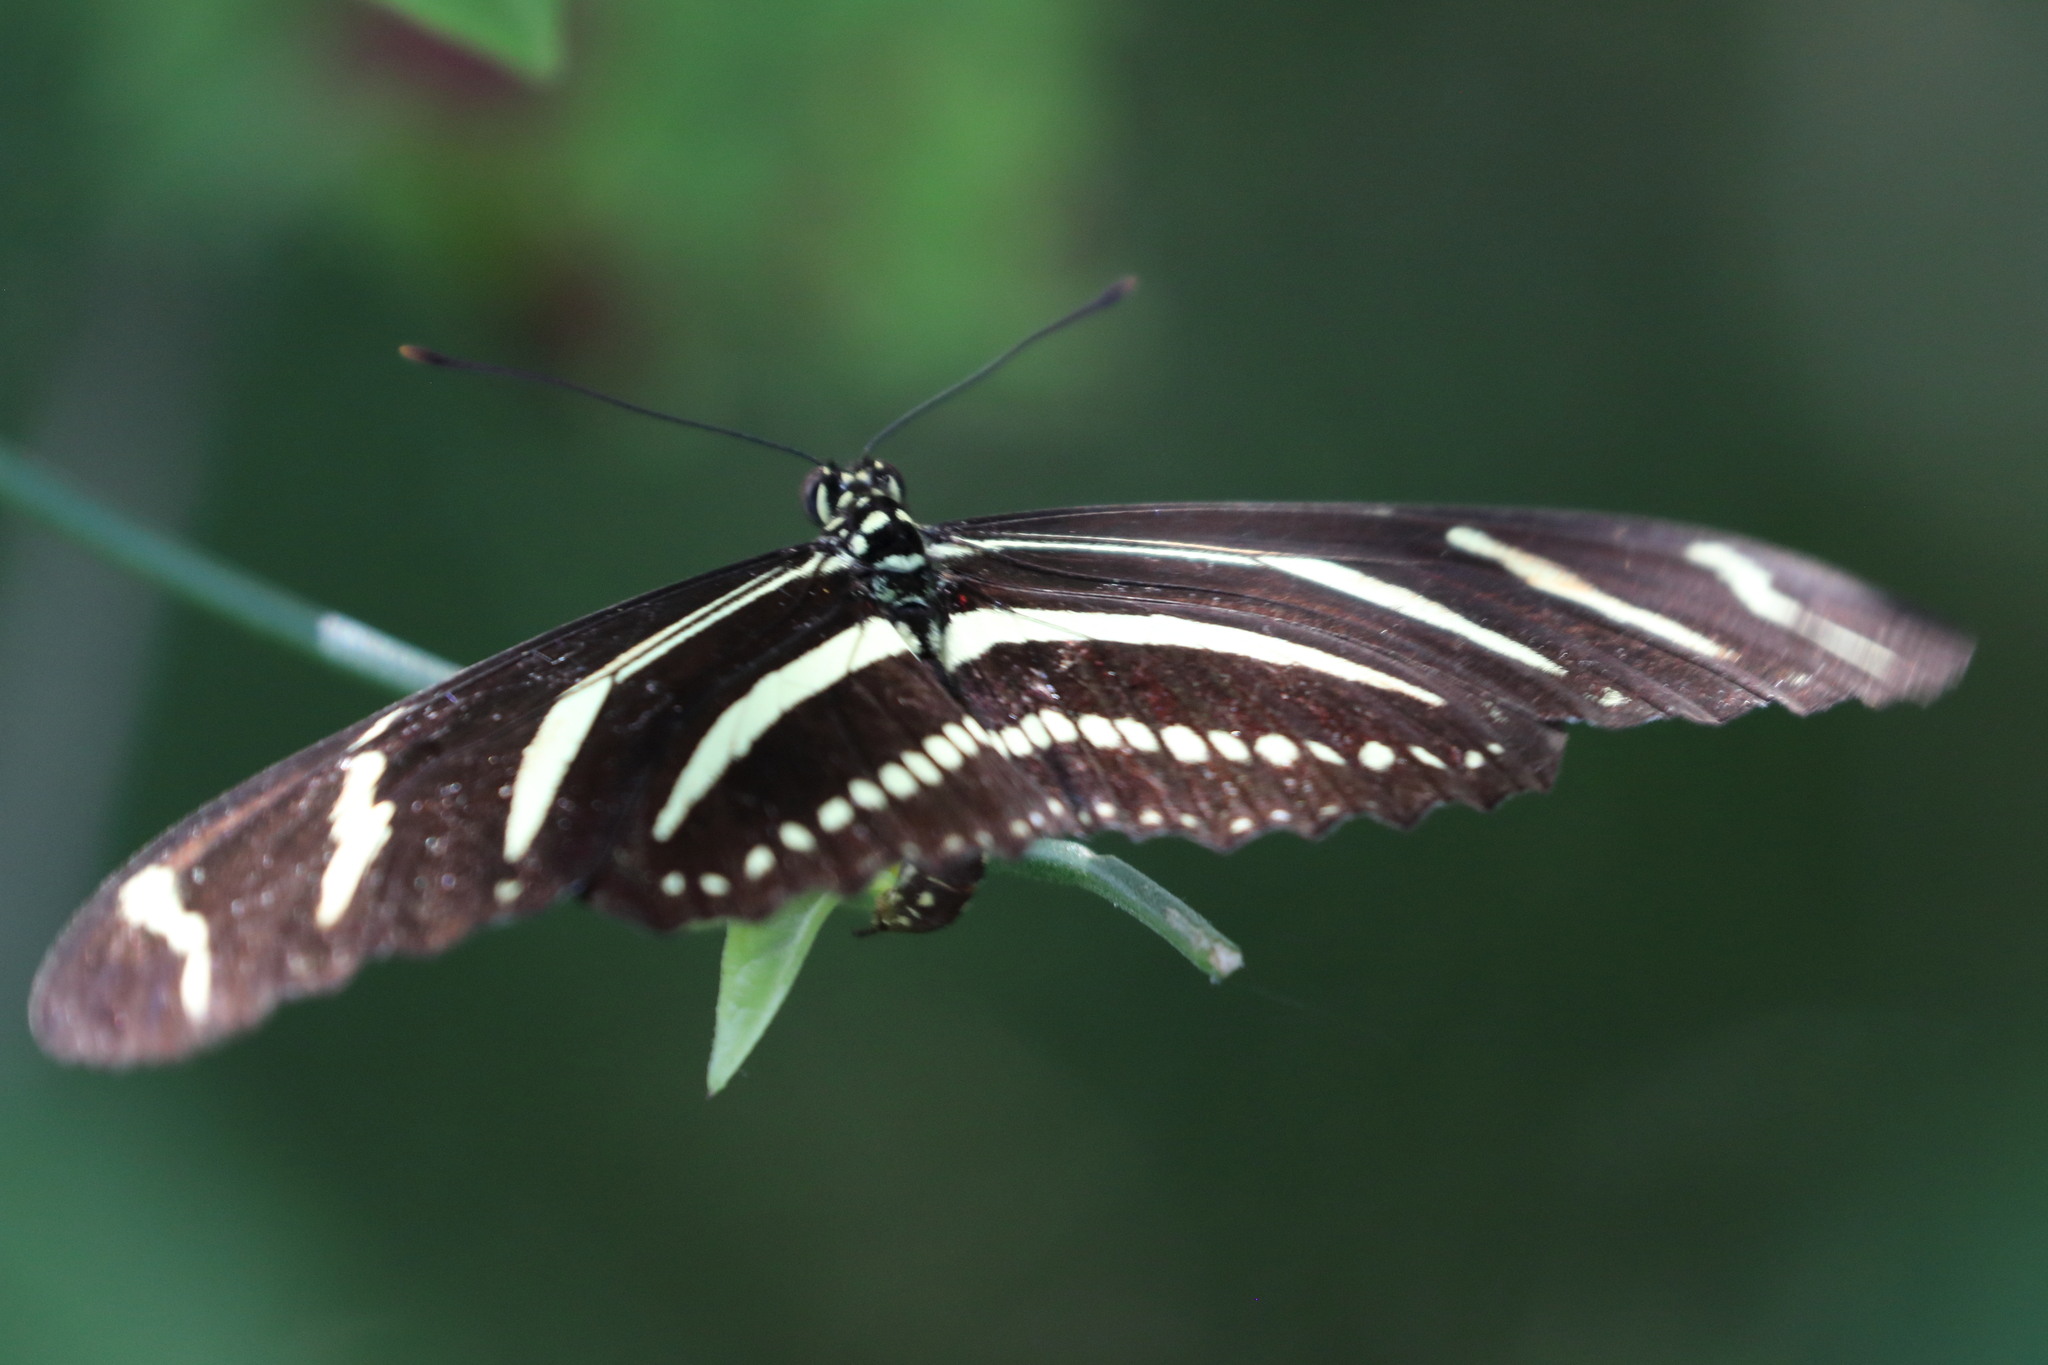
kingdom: Animalia
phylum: Arthropoda
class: Insecta
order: Lepidoptera
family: Nymphalidae
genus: Heliconius
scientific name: Heliconius charithonia
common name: Zebra long wing
